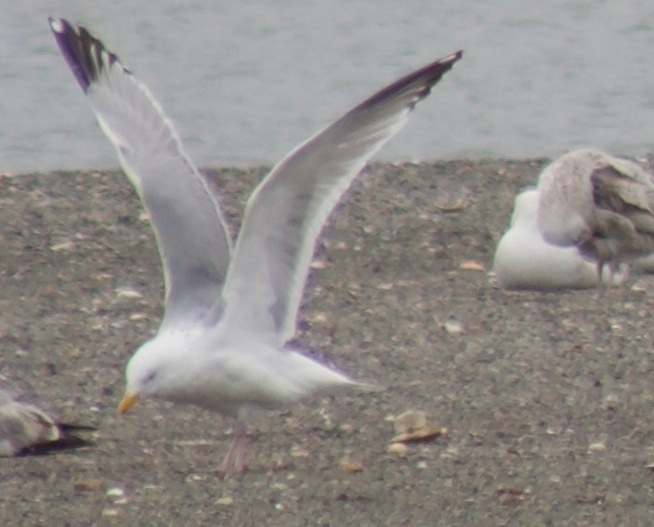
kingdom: Animalia
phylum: Chordata
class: Aves
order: Charadriiformes
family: Laridae
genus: Larus
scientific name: Larus argentatus
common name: Herring gull
